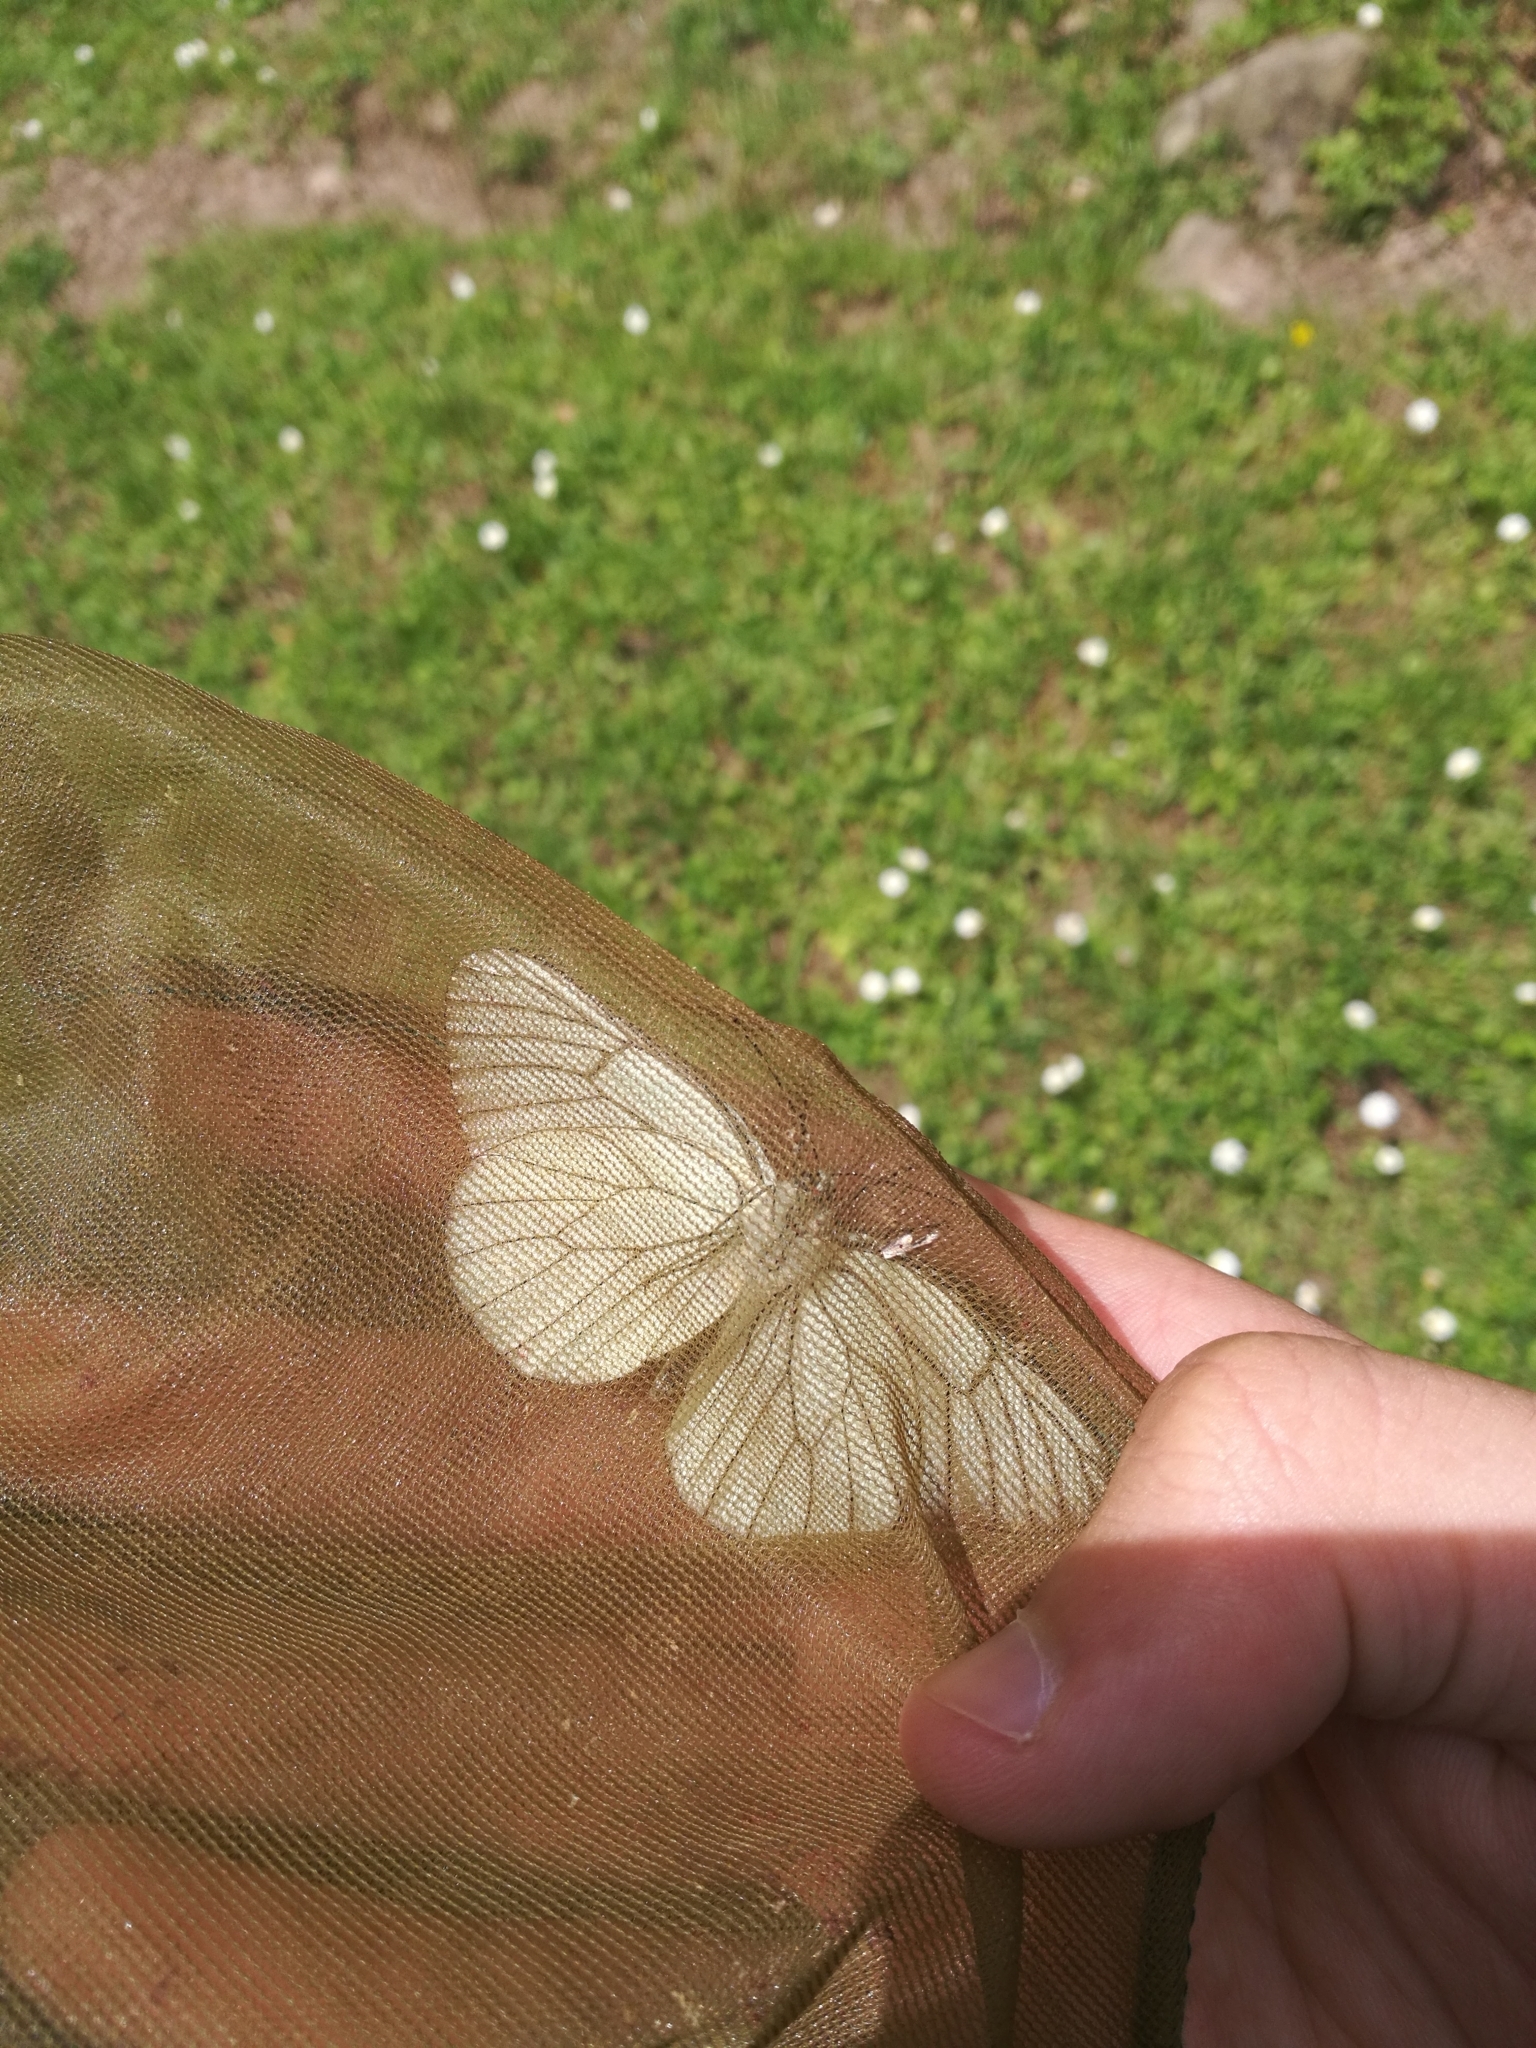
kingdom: Animalia
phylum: Arthropoda
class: Insecta
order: Lepidoptera
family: Pieridae
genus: Aporia
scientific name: Aporia crataegi
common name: Black-veined white
